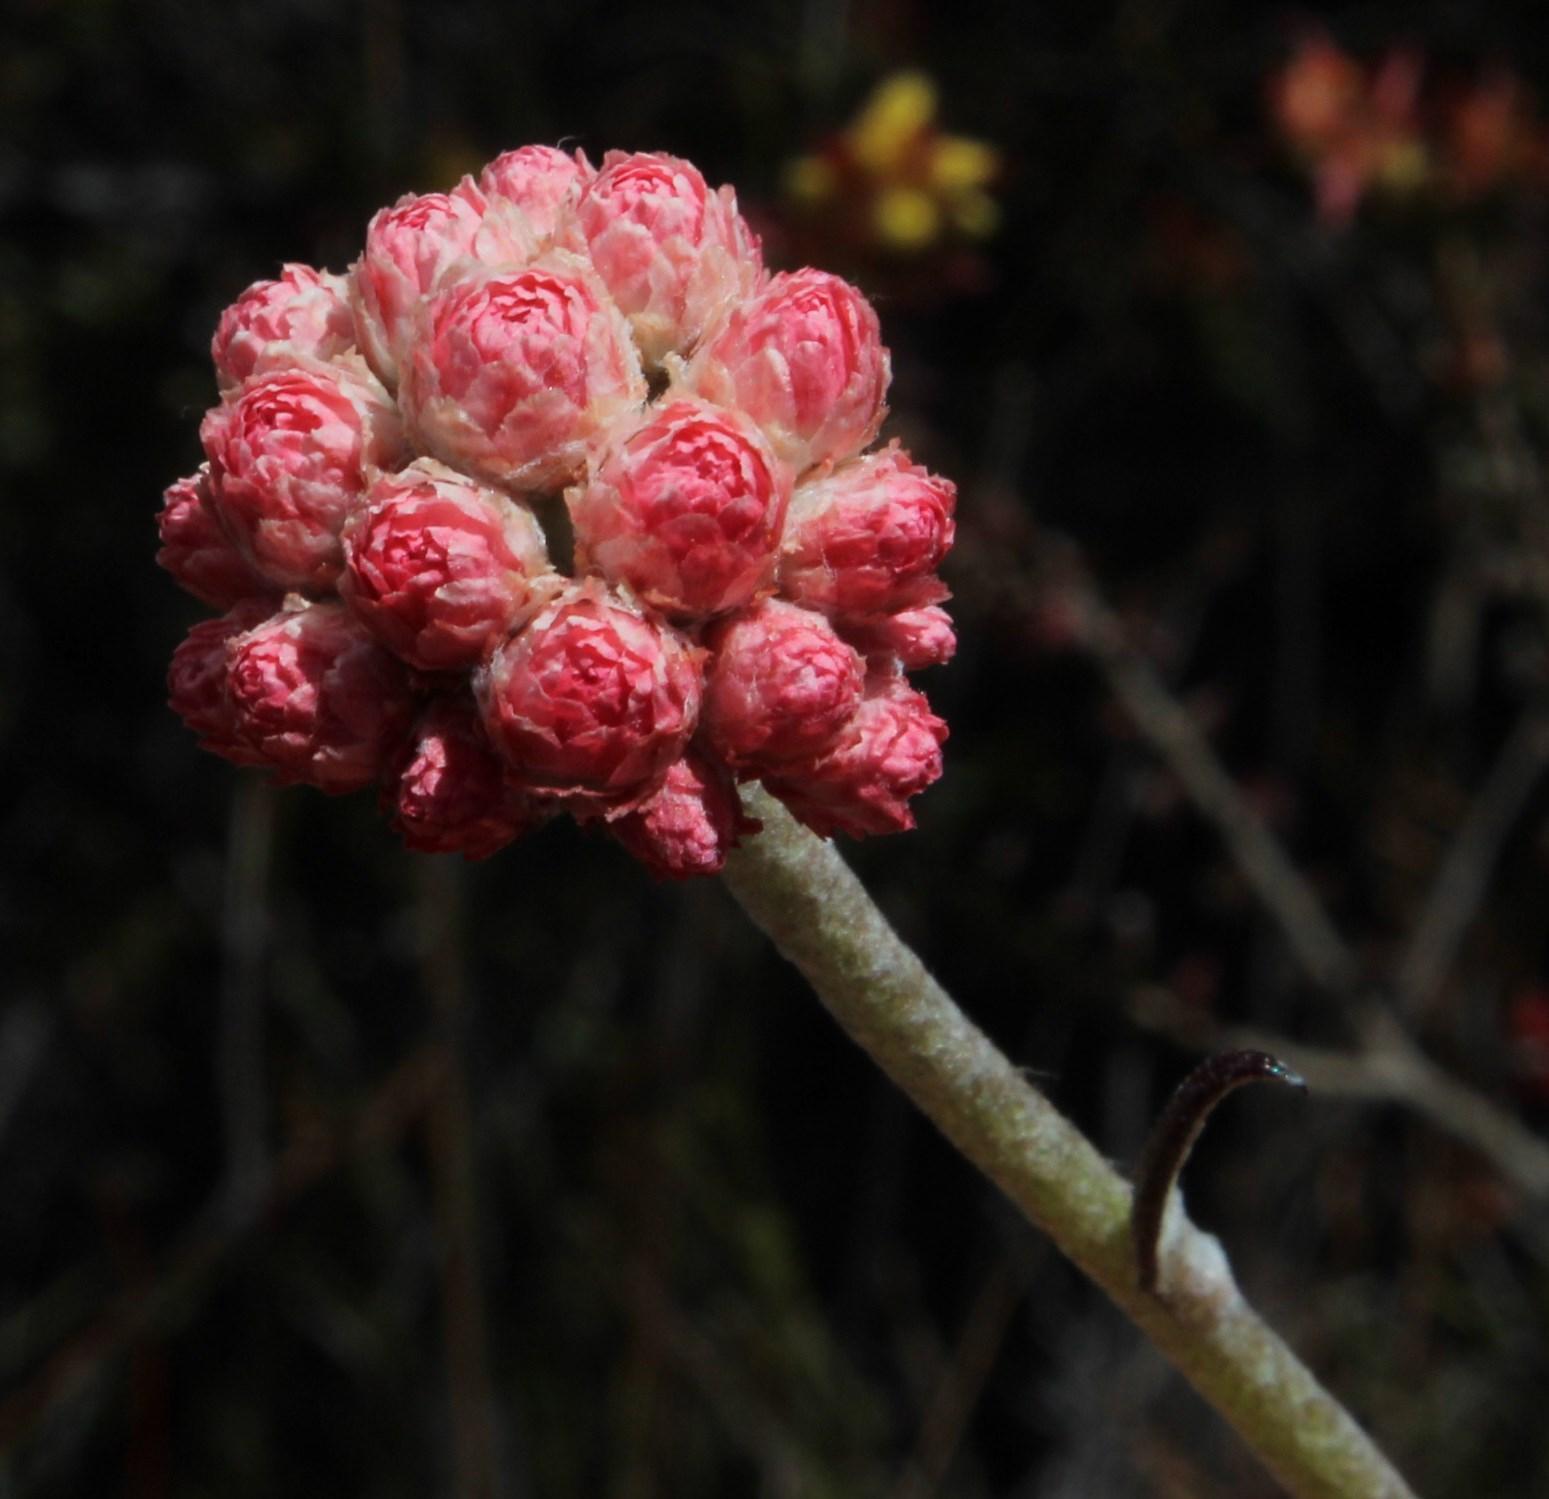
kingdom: Plantae
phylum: Tracheophyta
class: Magnoliopsida
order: Asterales
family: Asteraceae
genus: Helichrysum
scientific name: Helichrysum felinum
